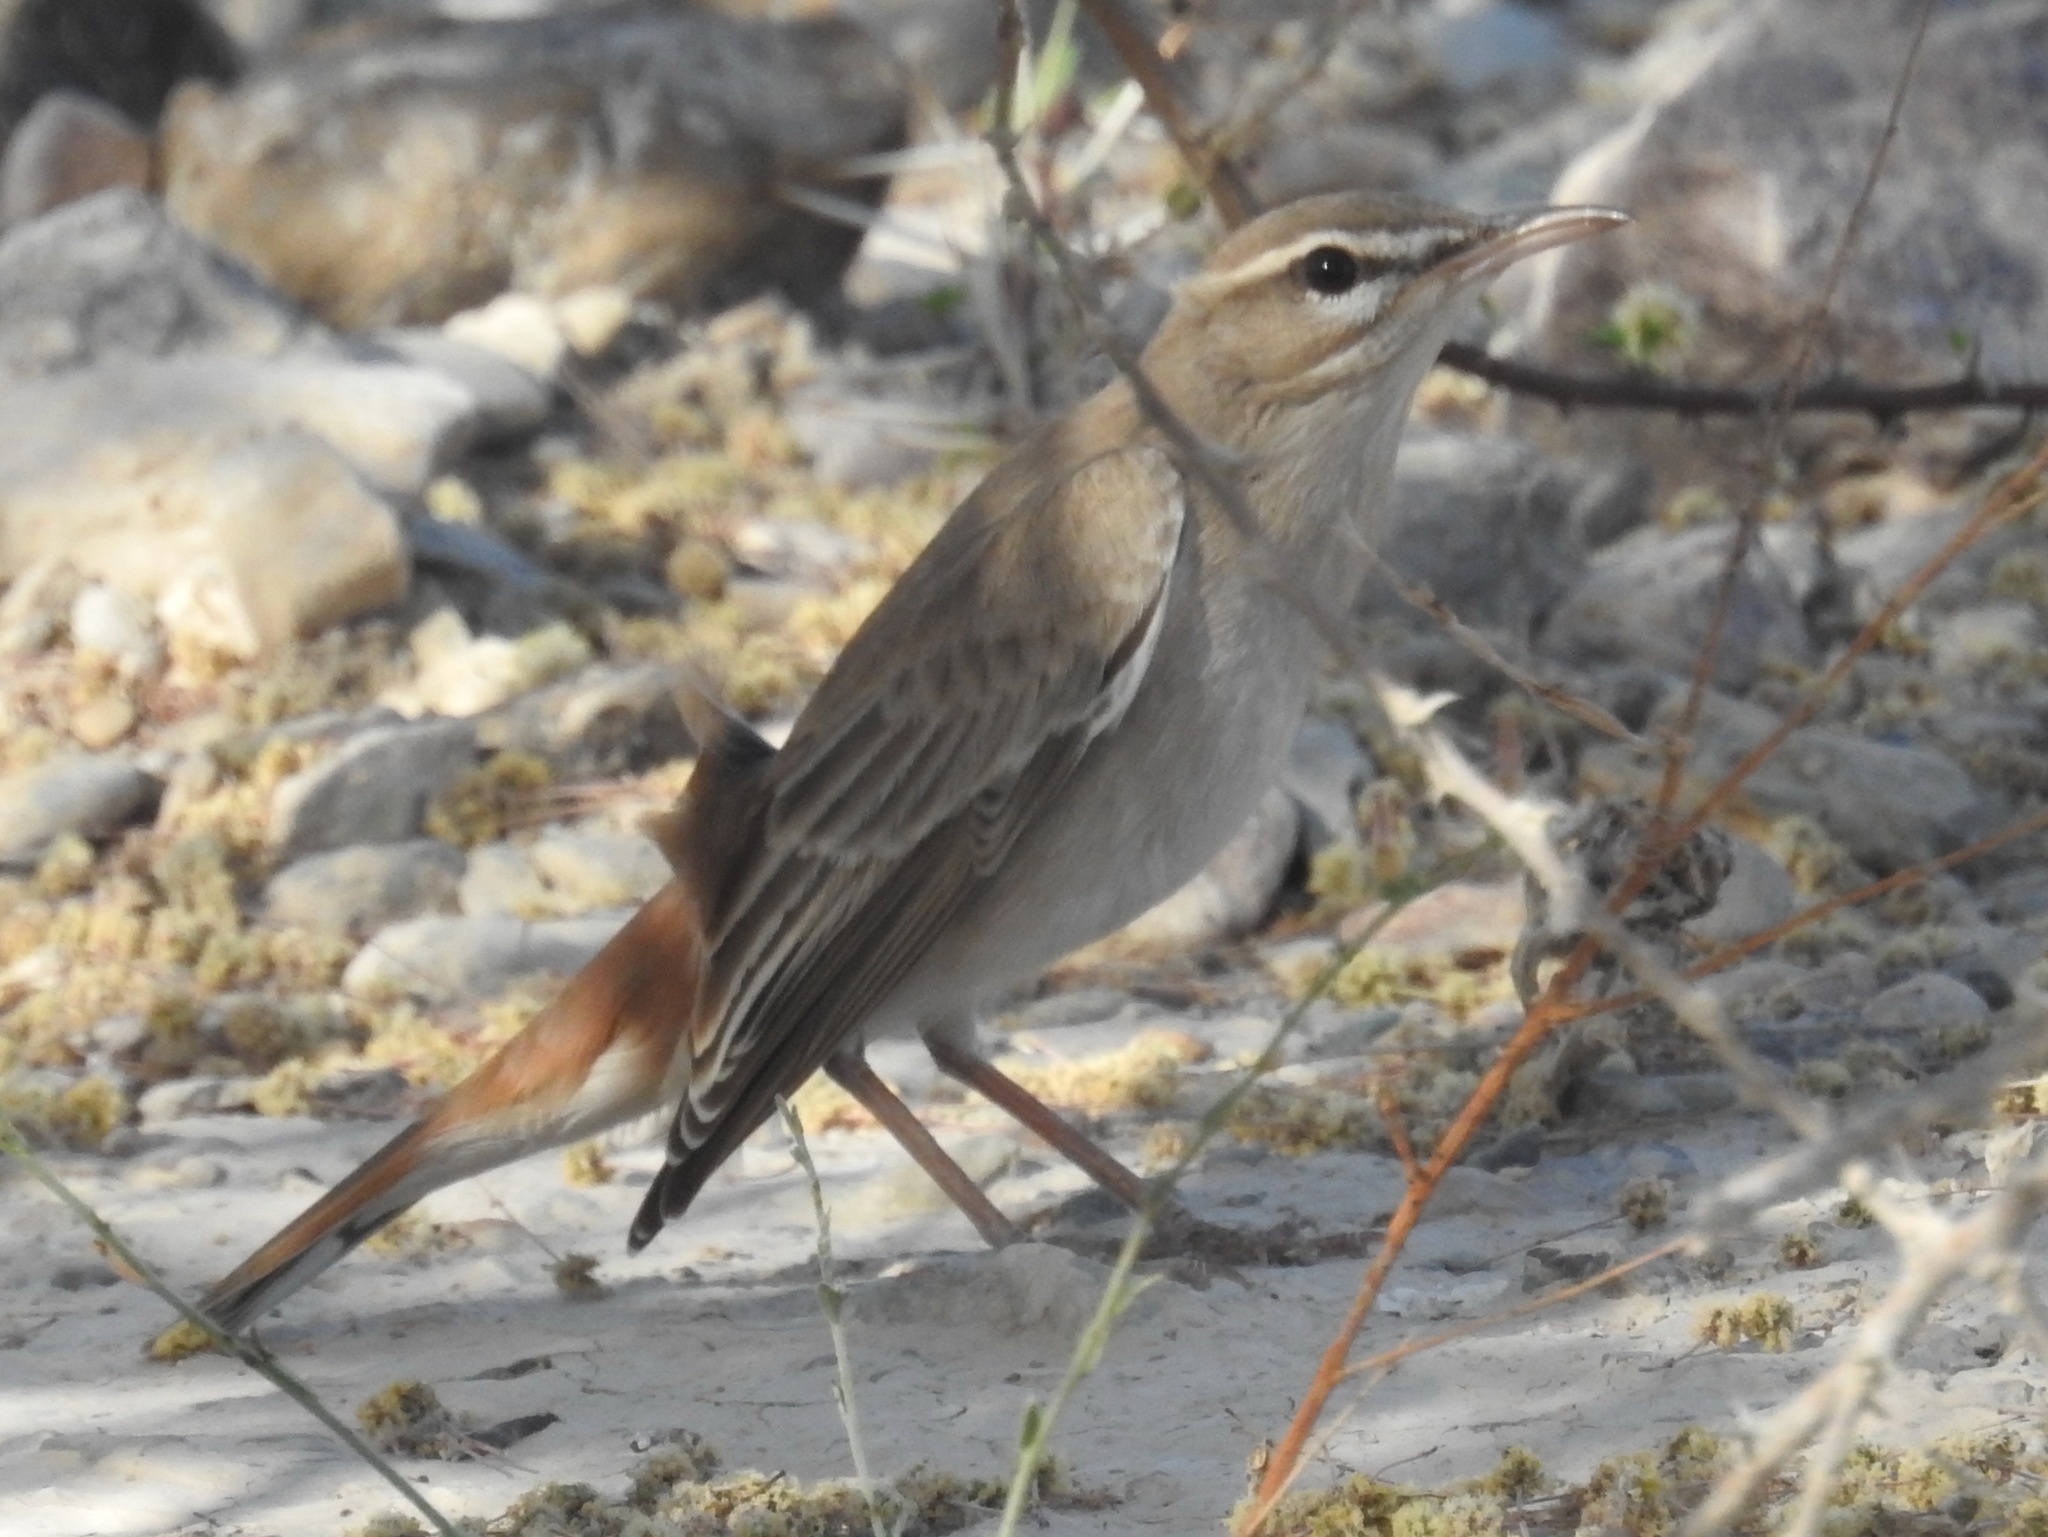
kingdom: Animalia
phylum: Chordata
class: Aves
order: Passeriformes
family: Muscicapidae
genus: Erythropygia
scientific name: Erythropygia galactotes
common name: Rufous-tailed scrub robin
